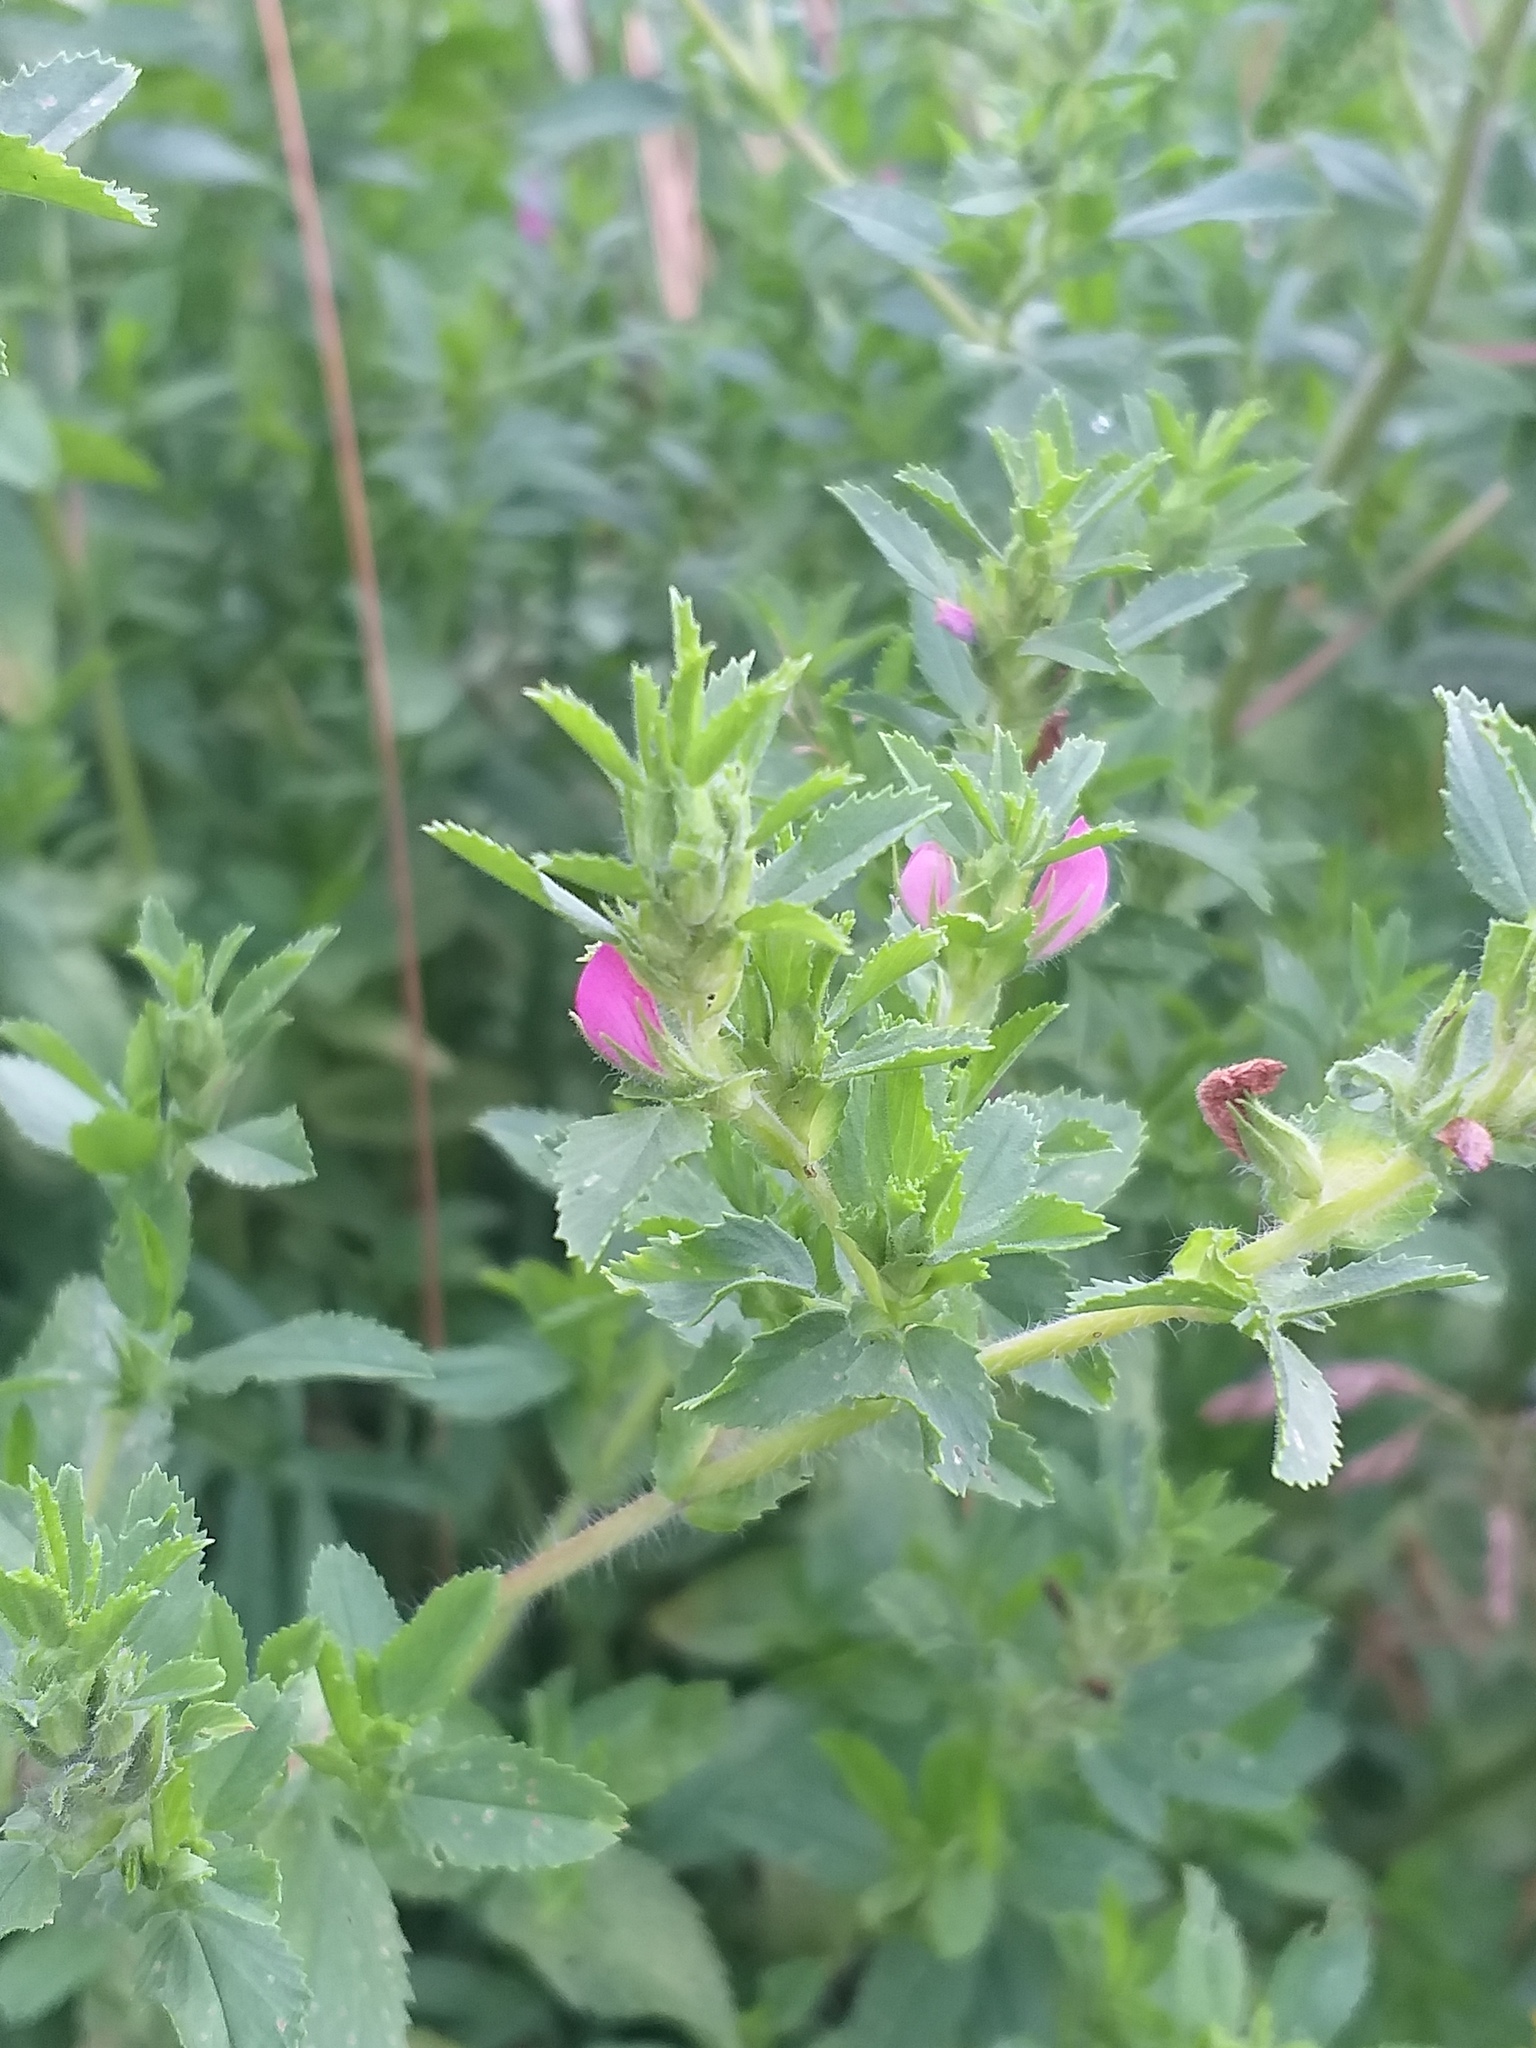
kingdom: Plantae
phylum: Tracheophyta
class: Magnoliopsida
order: Fabales
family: Fabaceae
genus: Ononis
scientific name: Ononis arvensis
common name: Field restharrow
